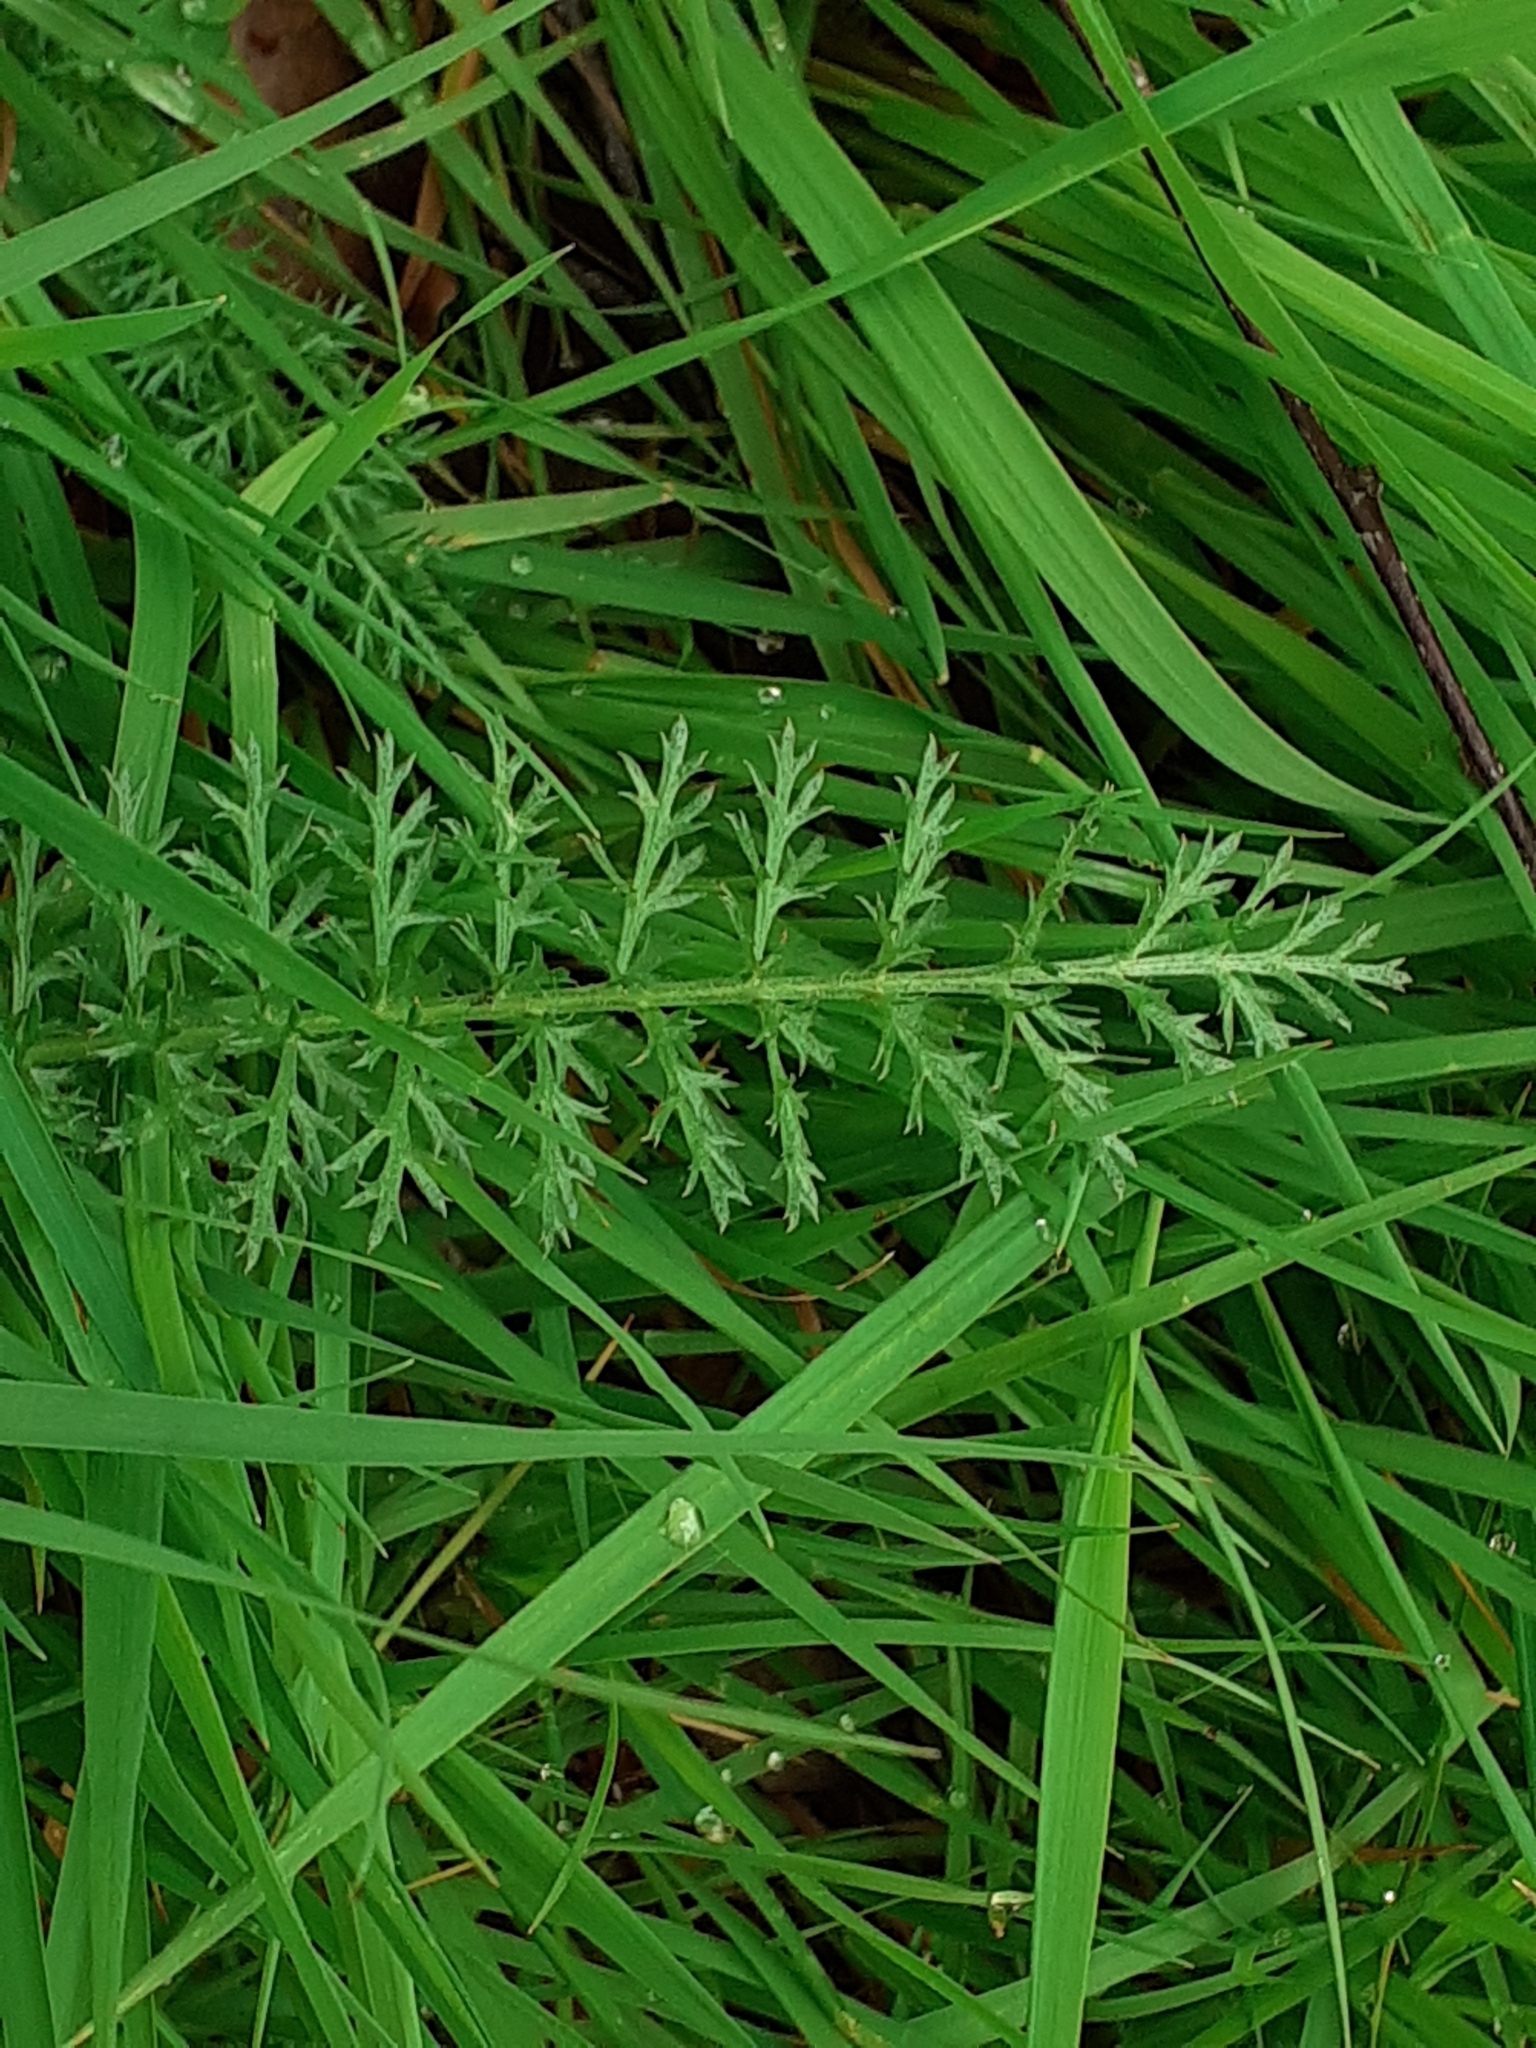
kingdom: Plantae
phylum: Tracheophyta
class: Magnoliopsida
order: Asterales
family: Asteraceae
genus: Achillea
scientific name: Achillea millefolium
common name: Yarrow
